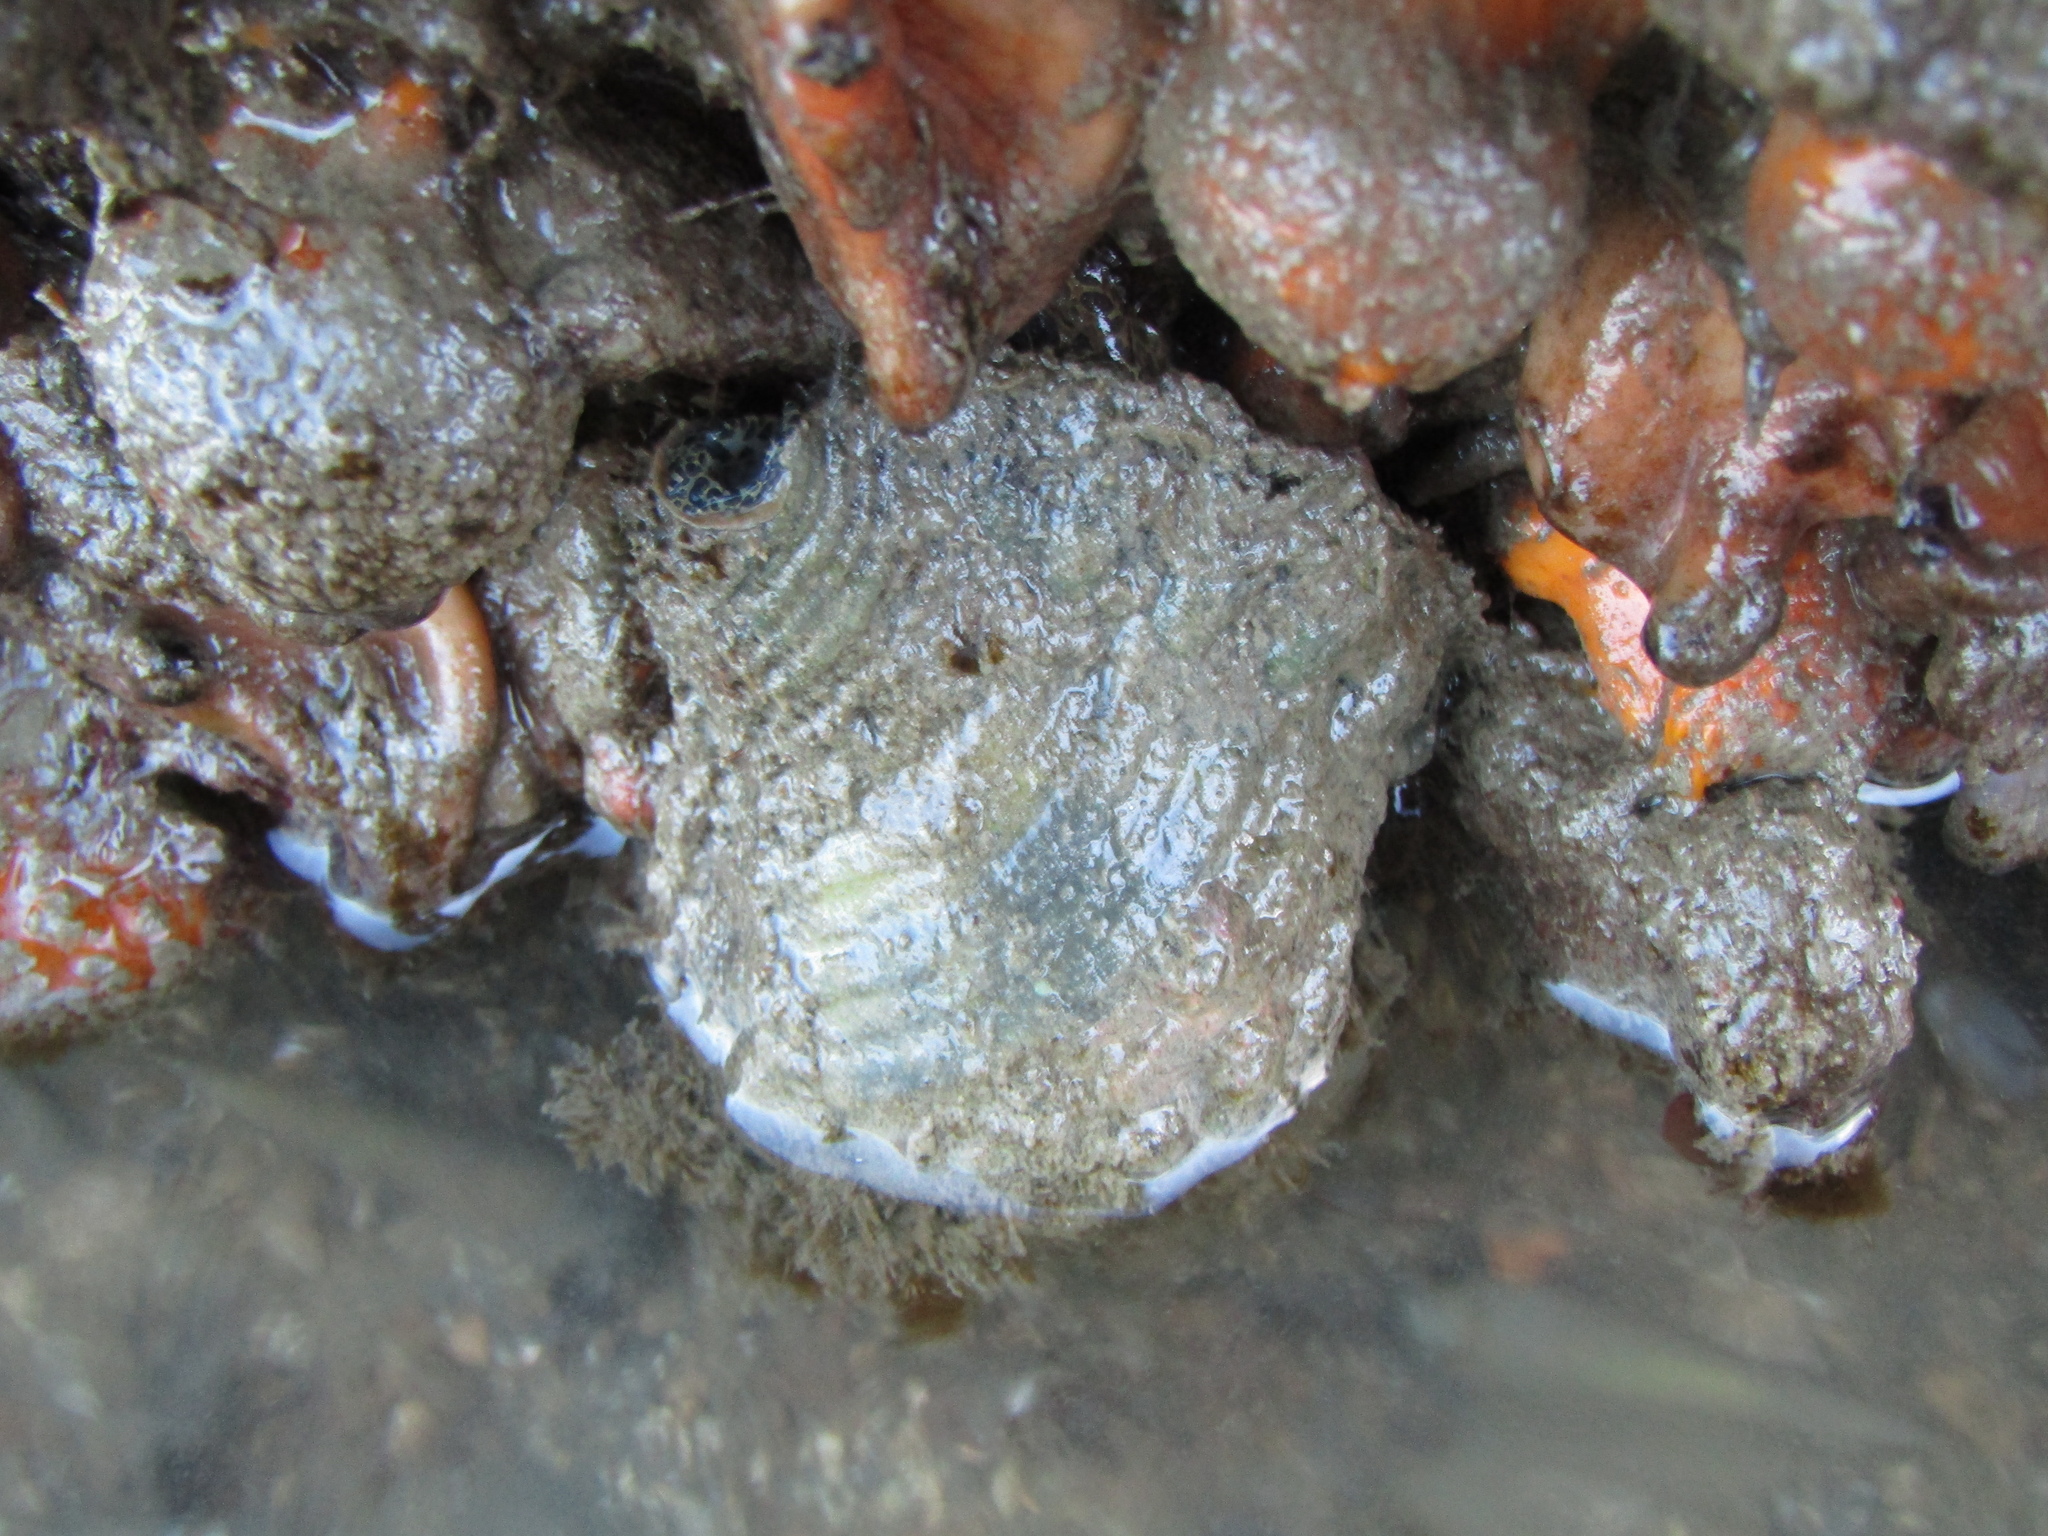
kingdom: Animalia
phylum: Mollusca
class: Gastropoda
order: Littorinimorpha
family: Cymatiidae
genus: Monoplex
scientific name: Monoplex parthenopeus
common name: Giant triton
